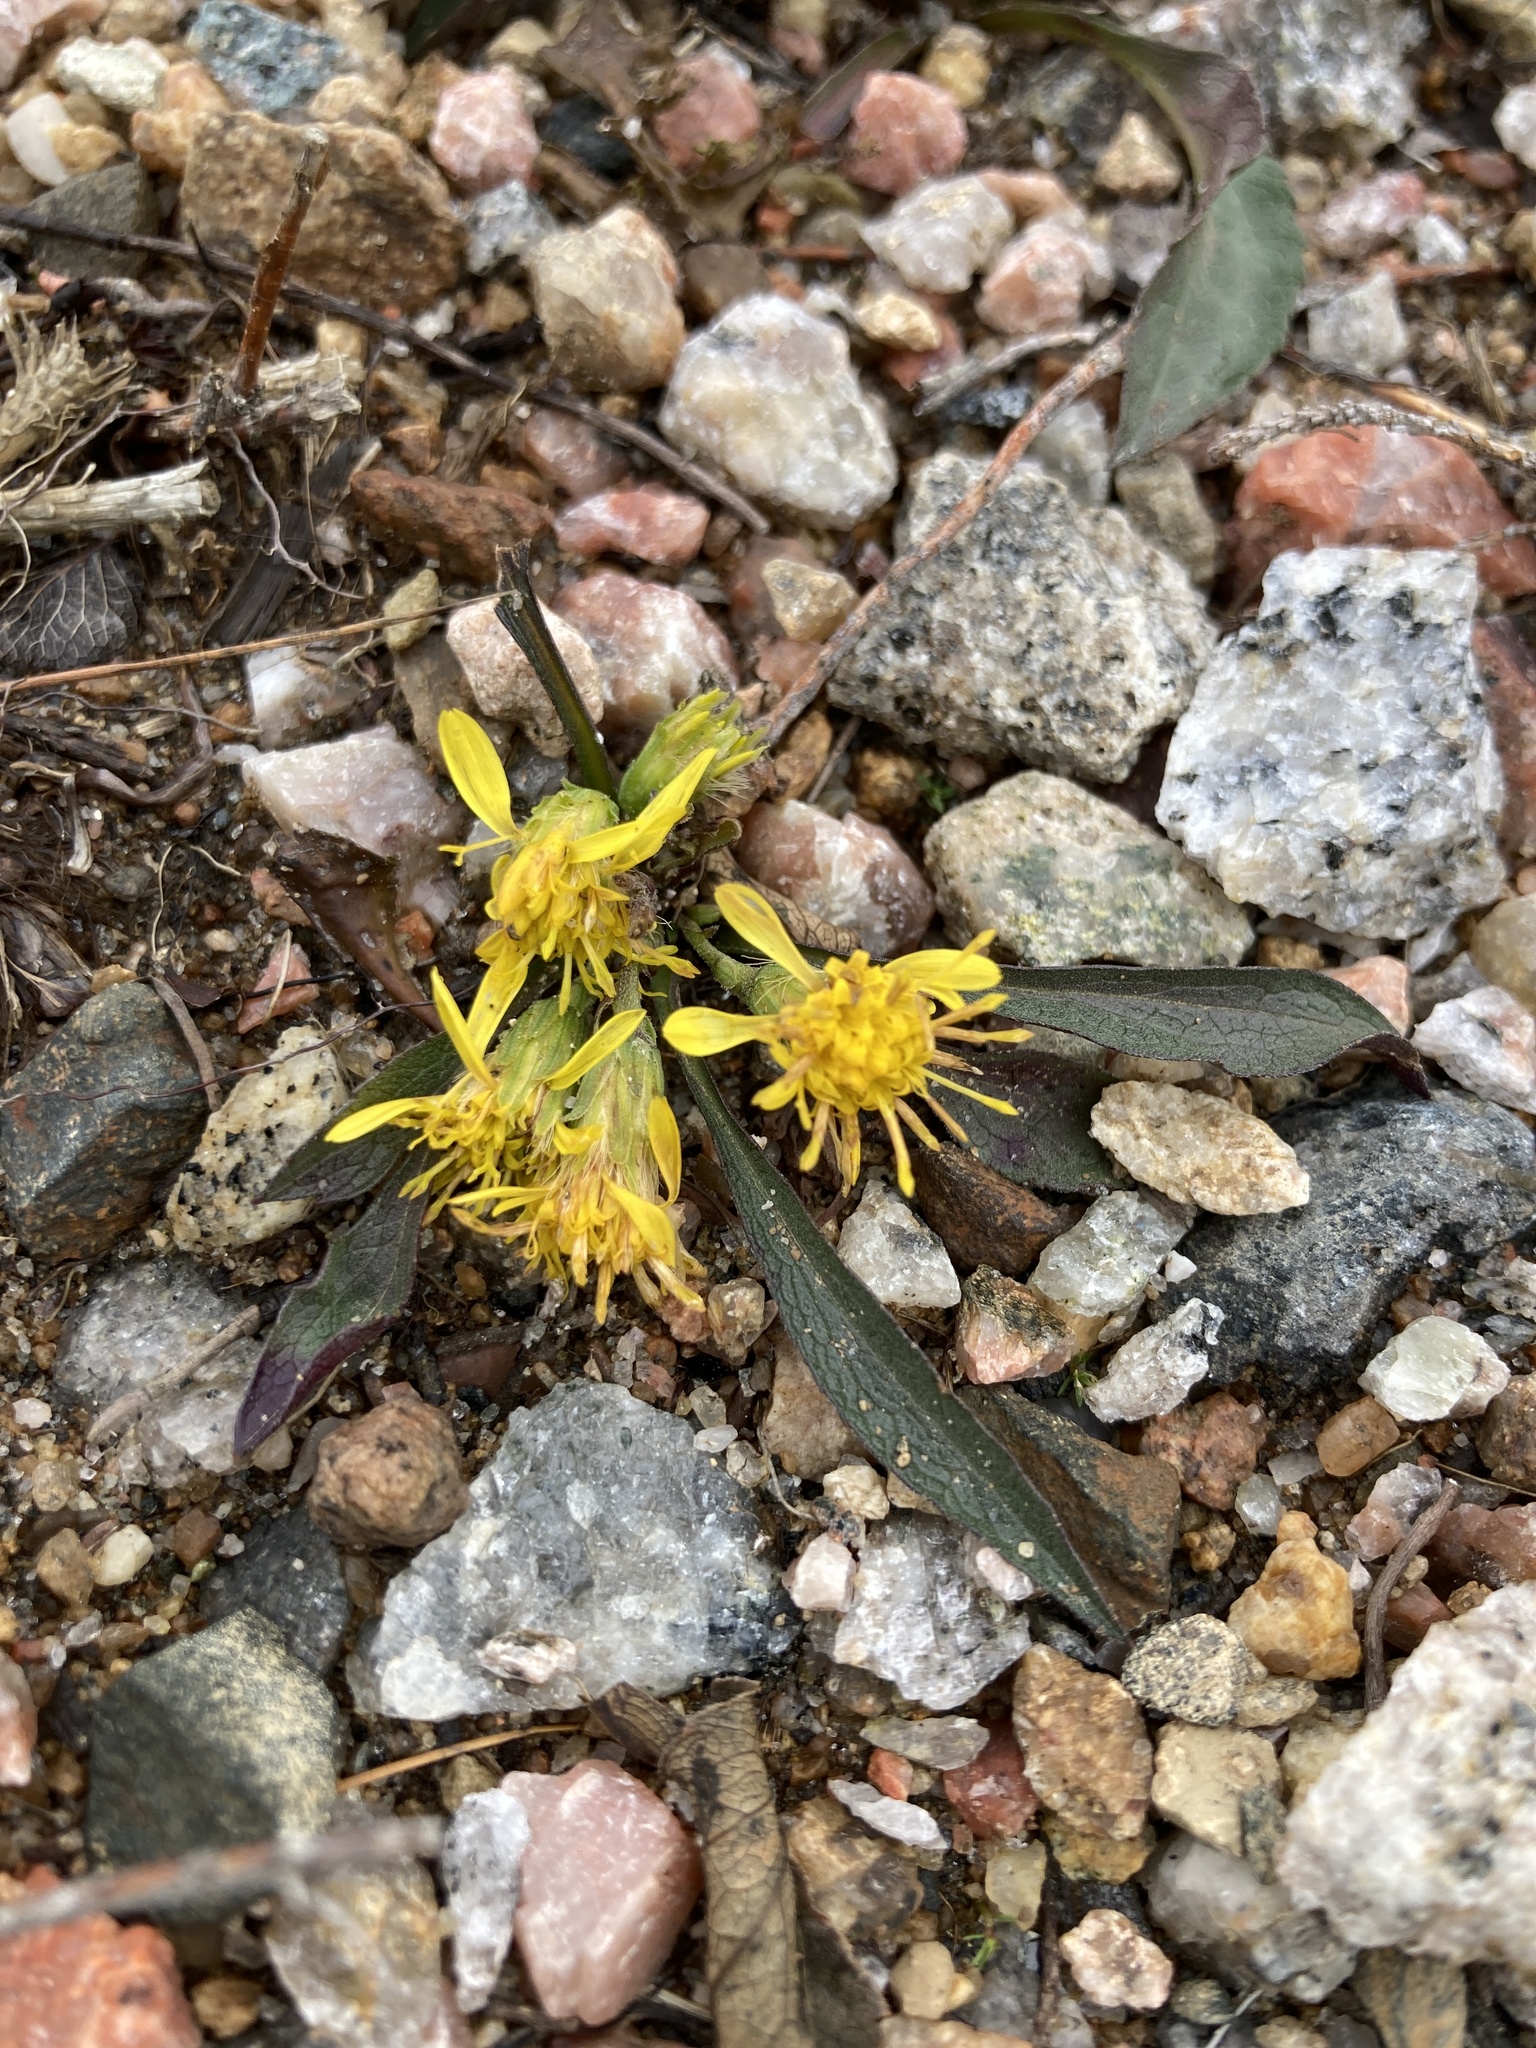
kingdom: Plantae
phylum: Tracheophyta
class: Magnoliopsida
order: Asterales
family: Asteraceae
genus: Solidago
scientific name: Solidago virgaurea
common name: Goldenrod
